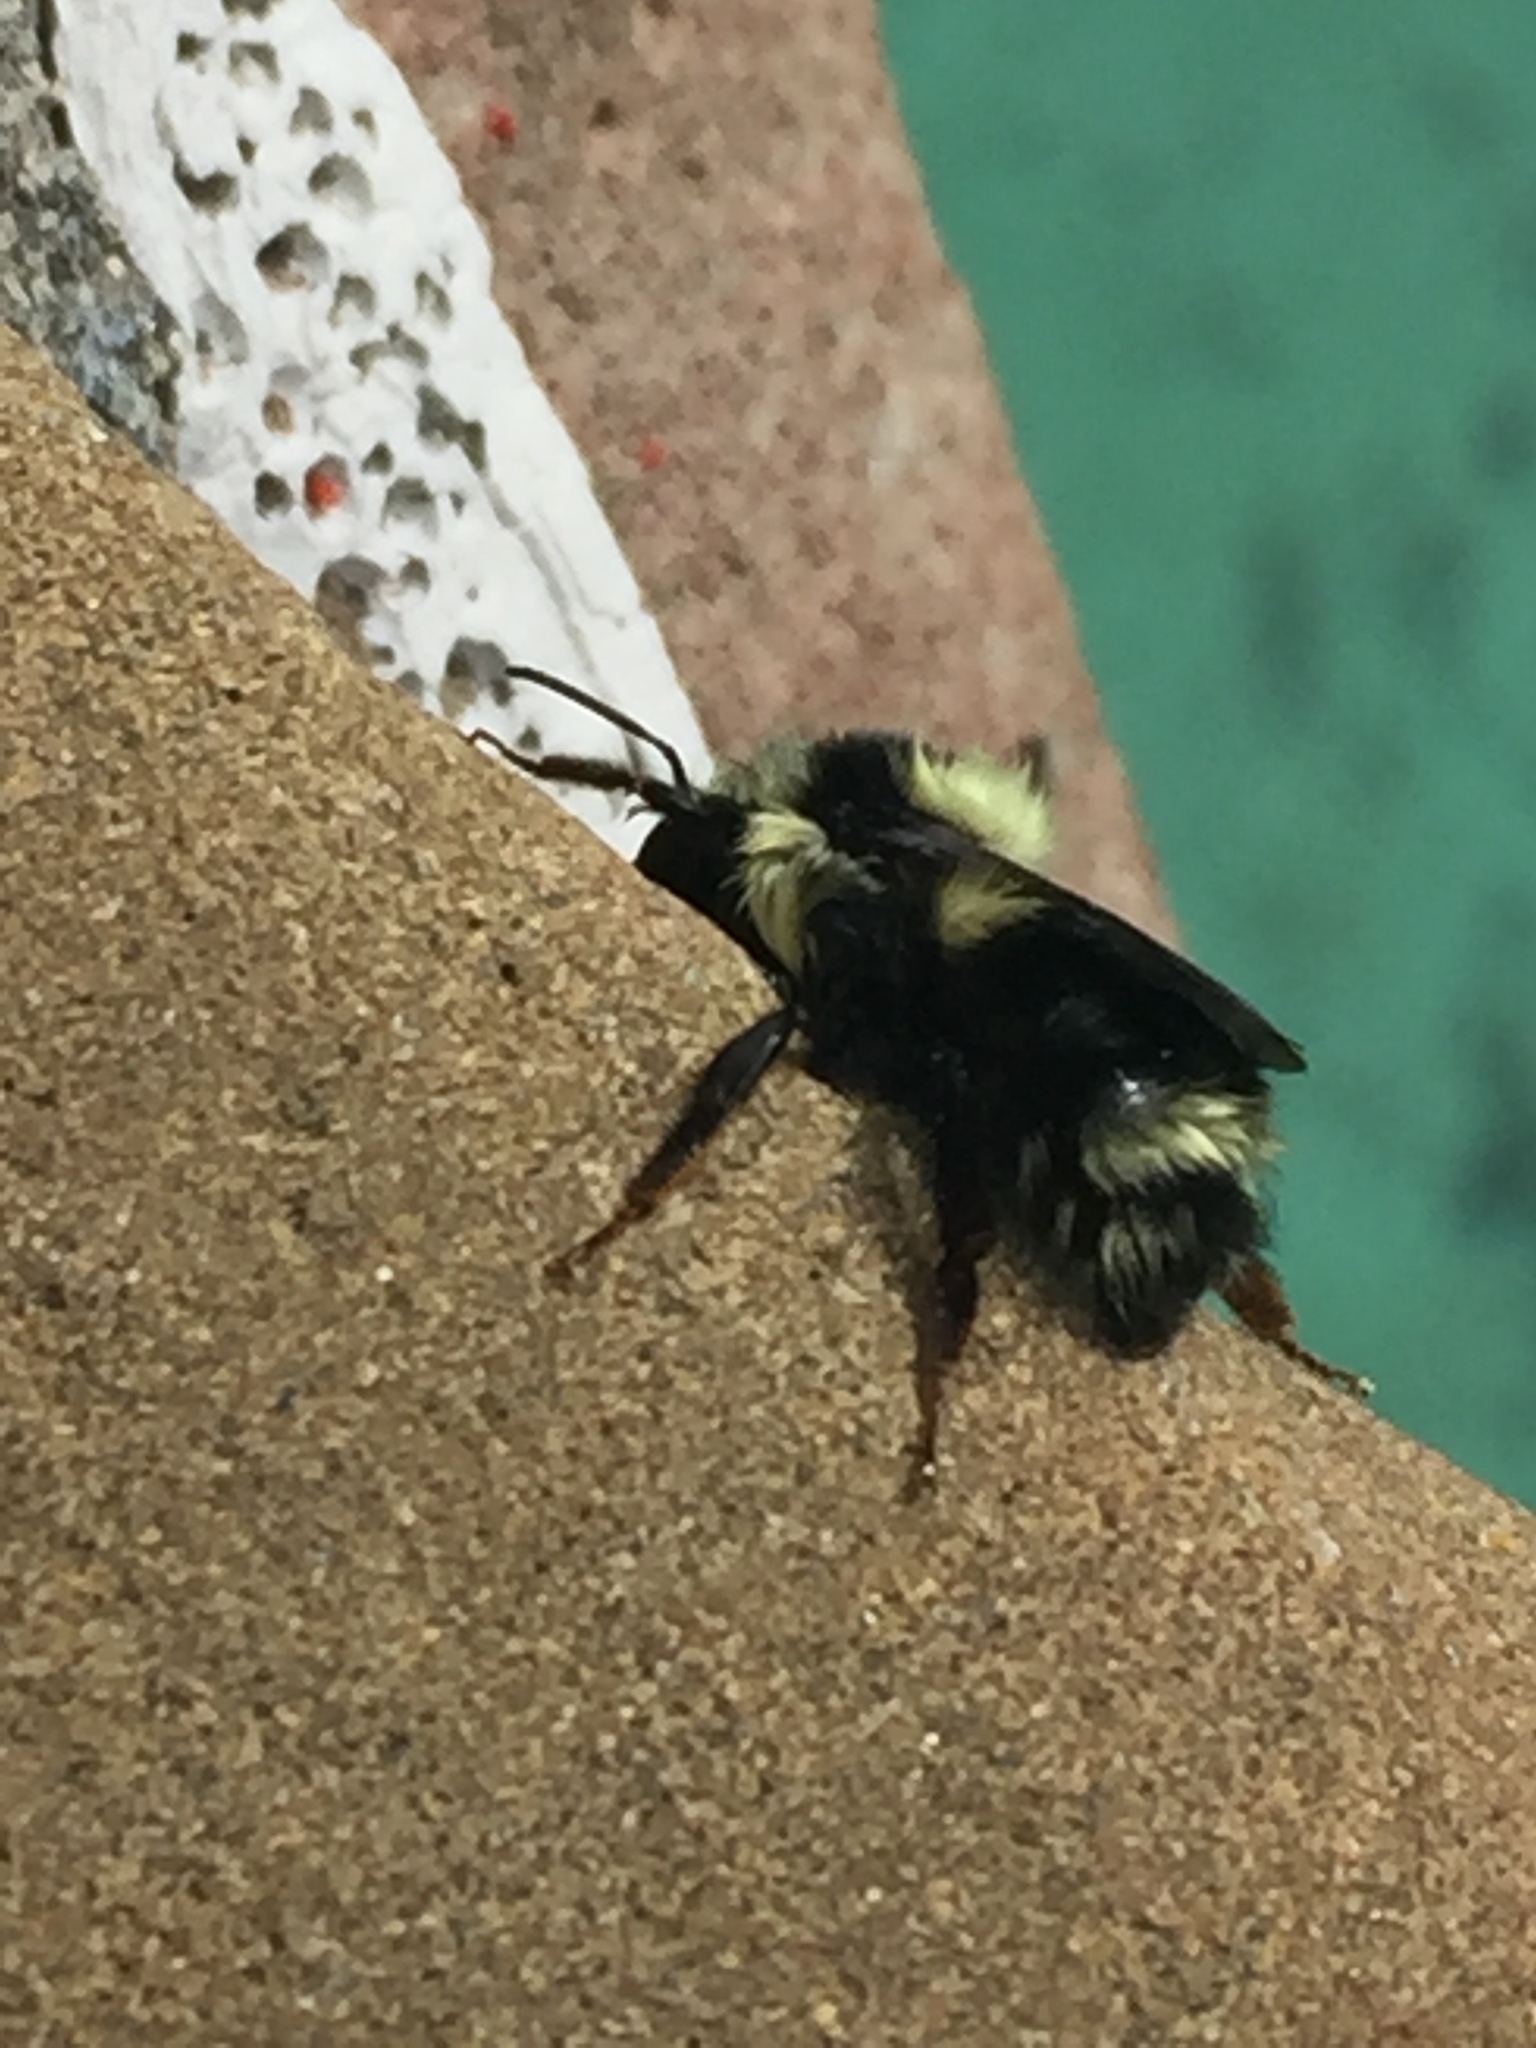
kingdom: Animalia
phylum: Arthropoda
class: Insecta
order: Hymenoptera
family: Apidae
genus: Bombus
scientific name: Bombus melanopygus
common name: Black tail bumble bee
